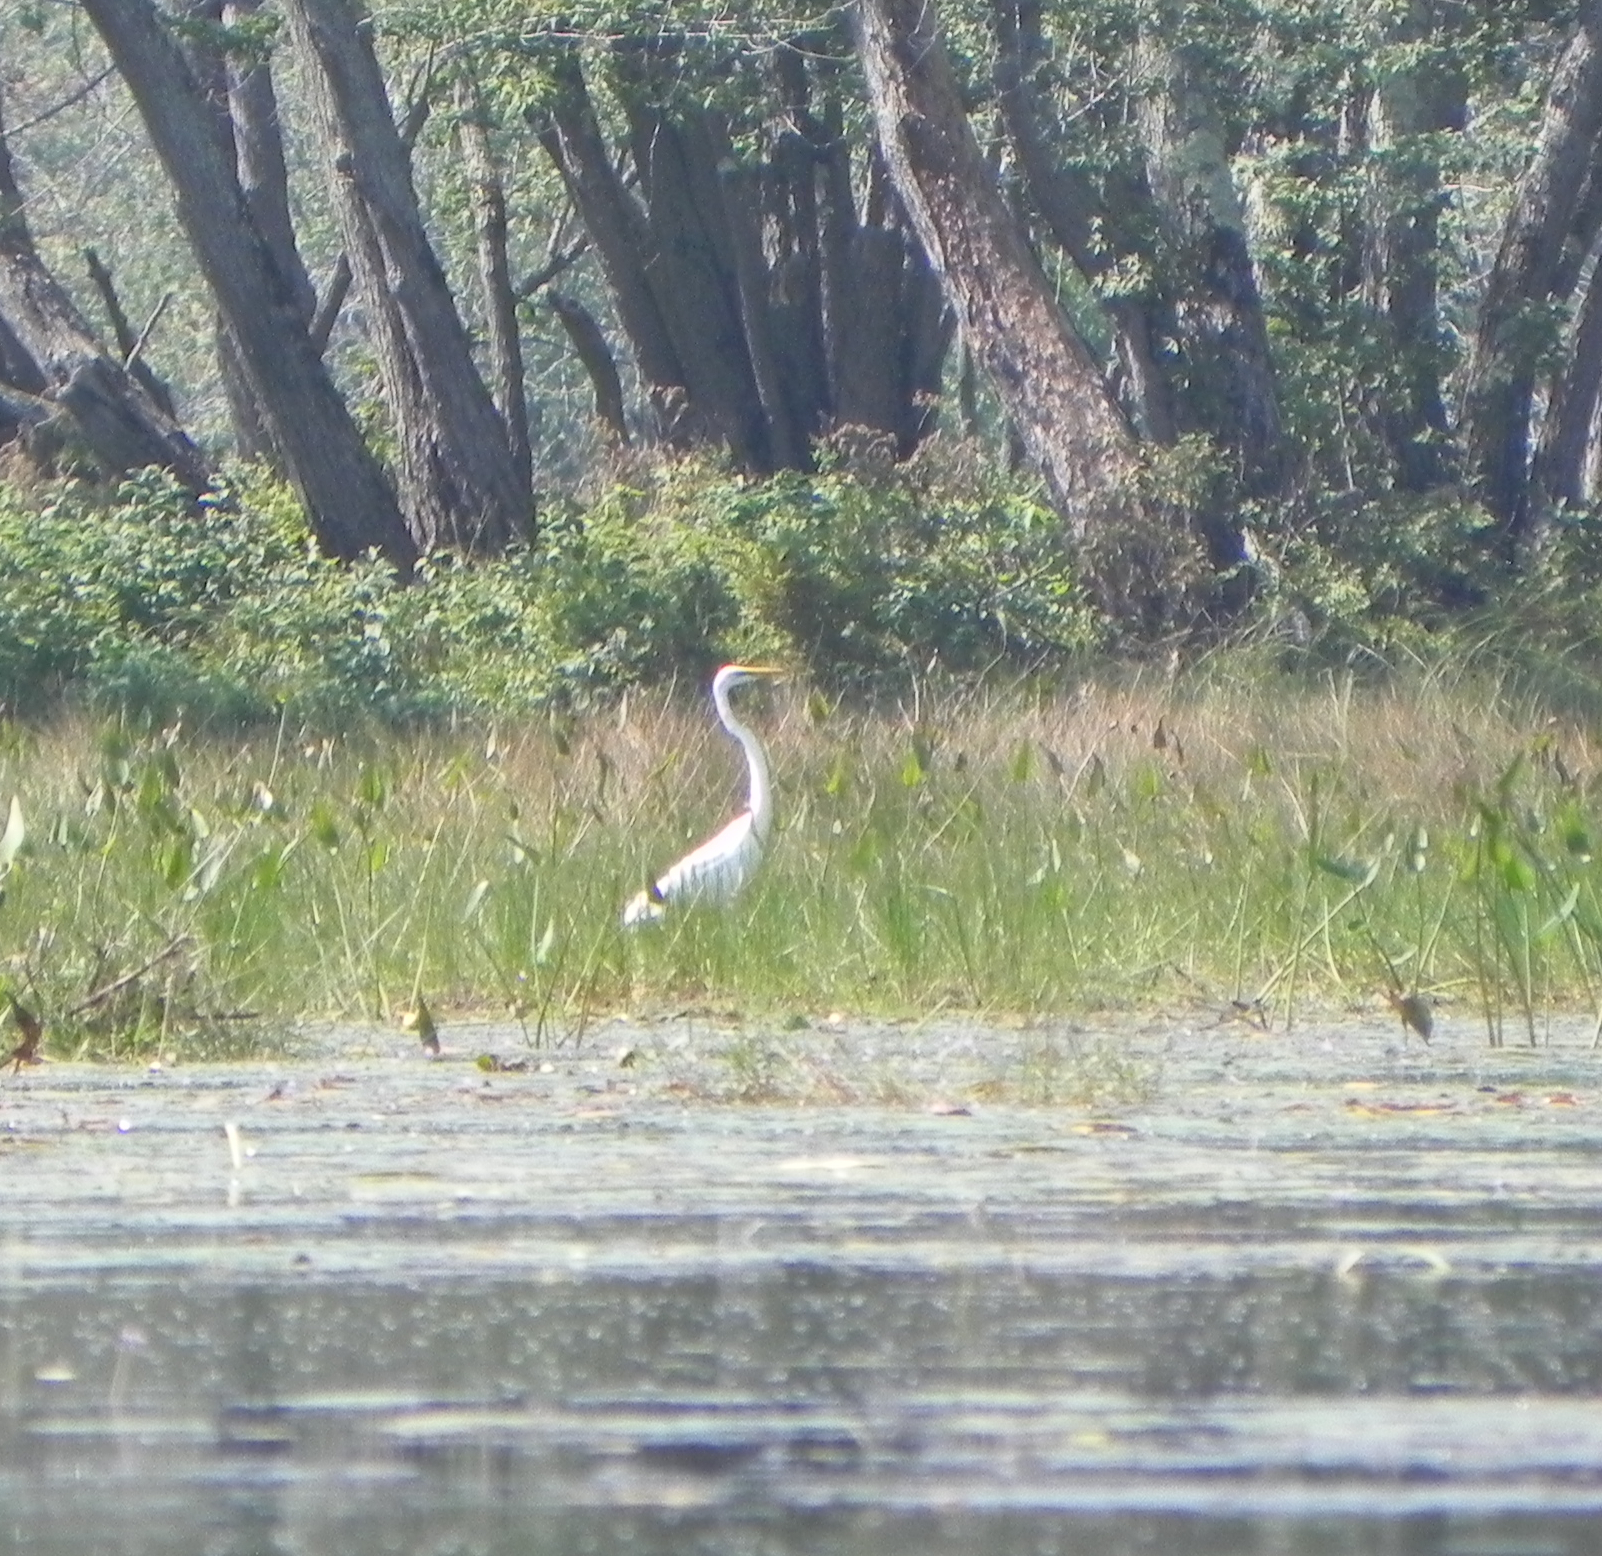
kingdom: Animalia
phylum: Chordata
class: Aves
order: Pelecaniformes
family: Ardeidae
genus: Ardea
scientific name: Ardea alba
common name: Great egret
